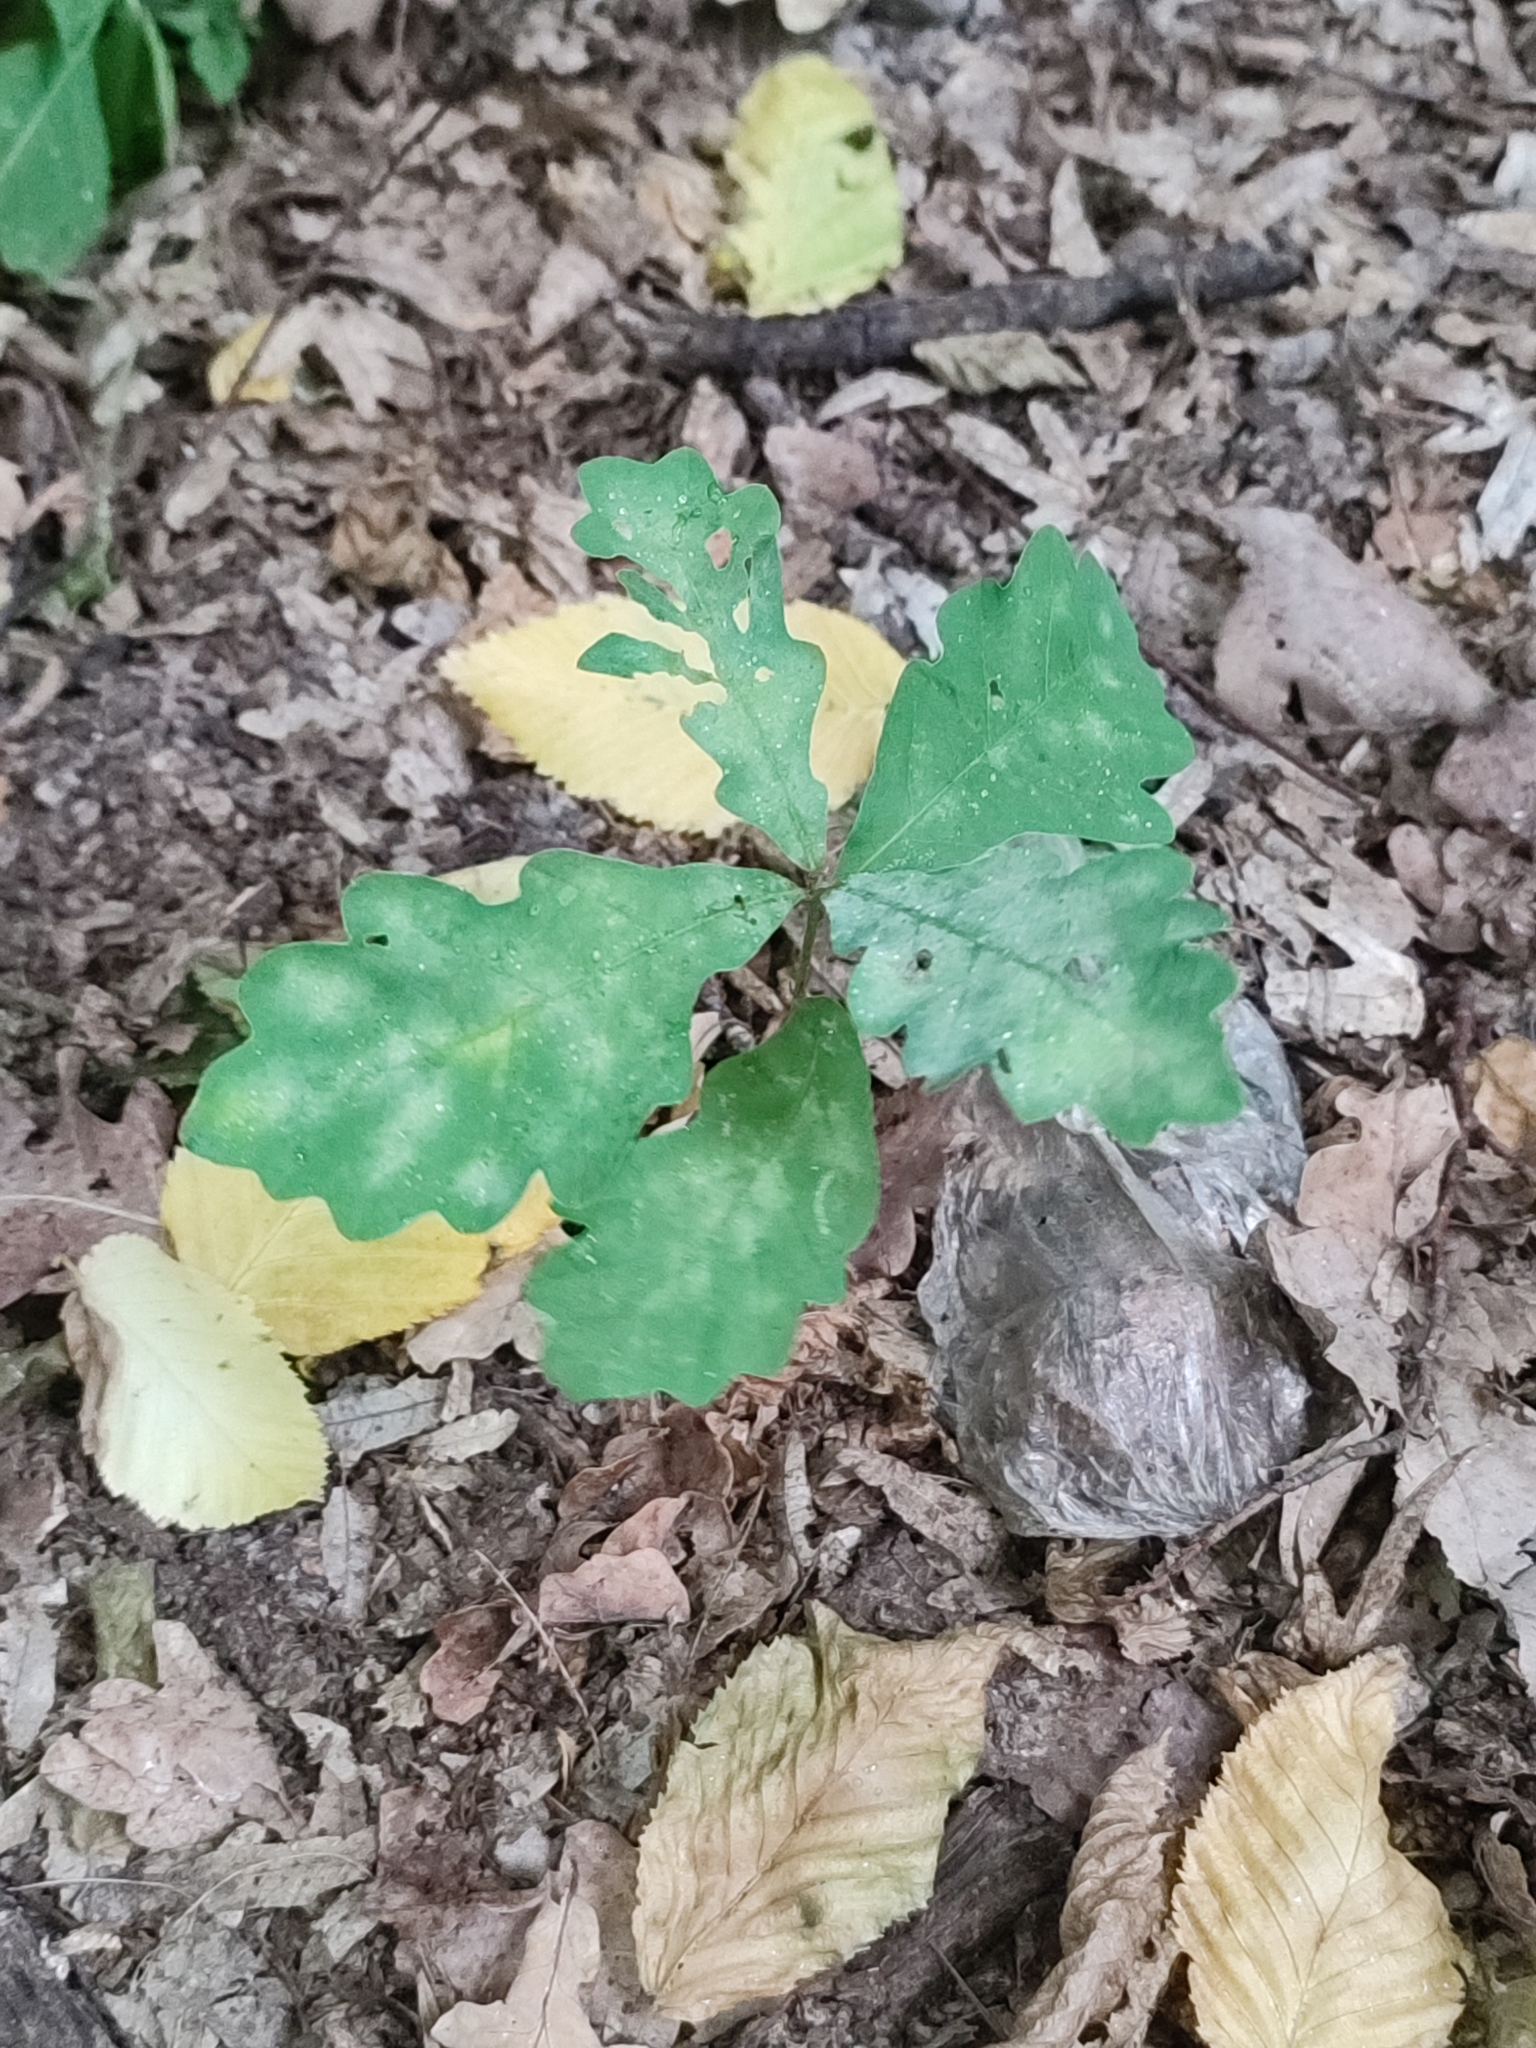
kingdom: Plantae
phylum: Tracheophyta
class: Magnoliopsida
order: Fagales
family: Fagaceae
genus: Quercus
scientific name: Quercus robur
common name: Pedunculate oak
